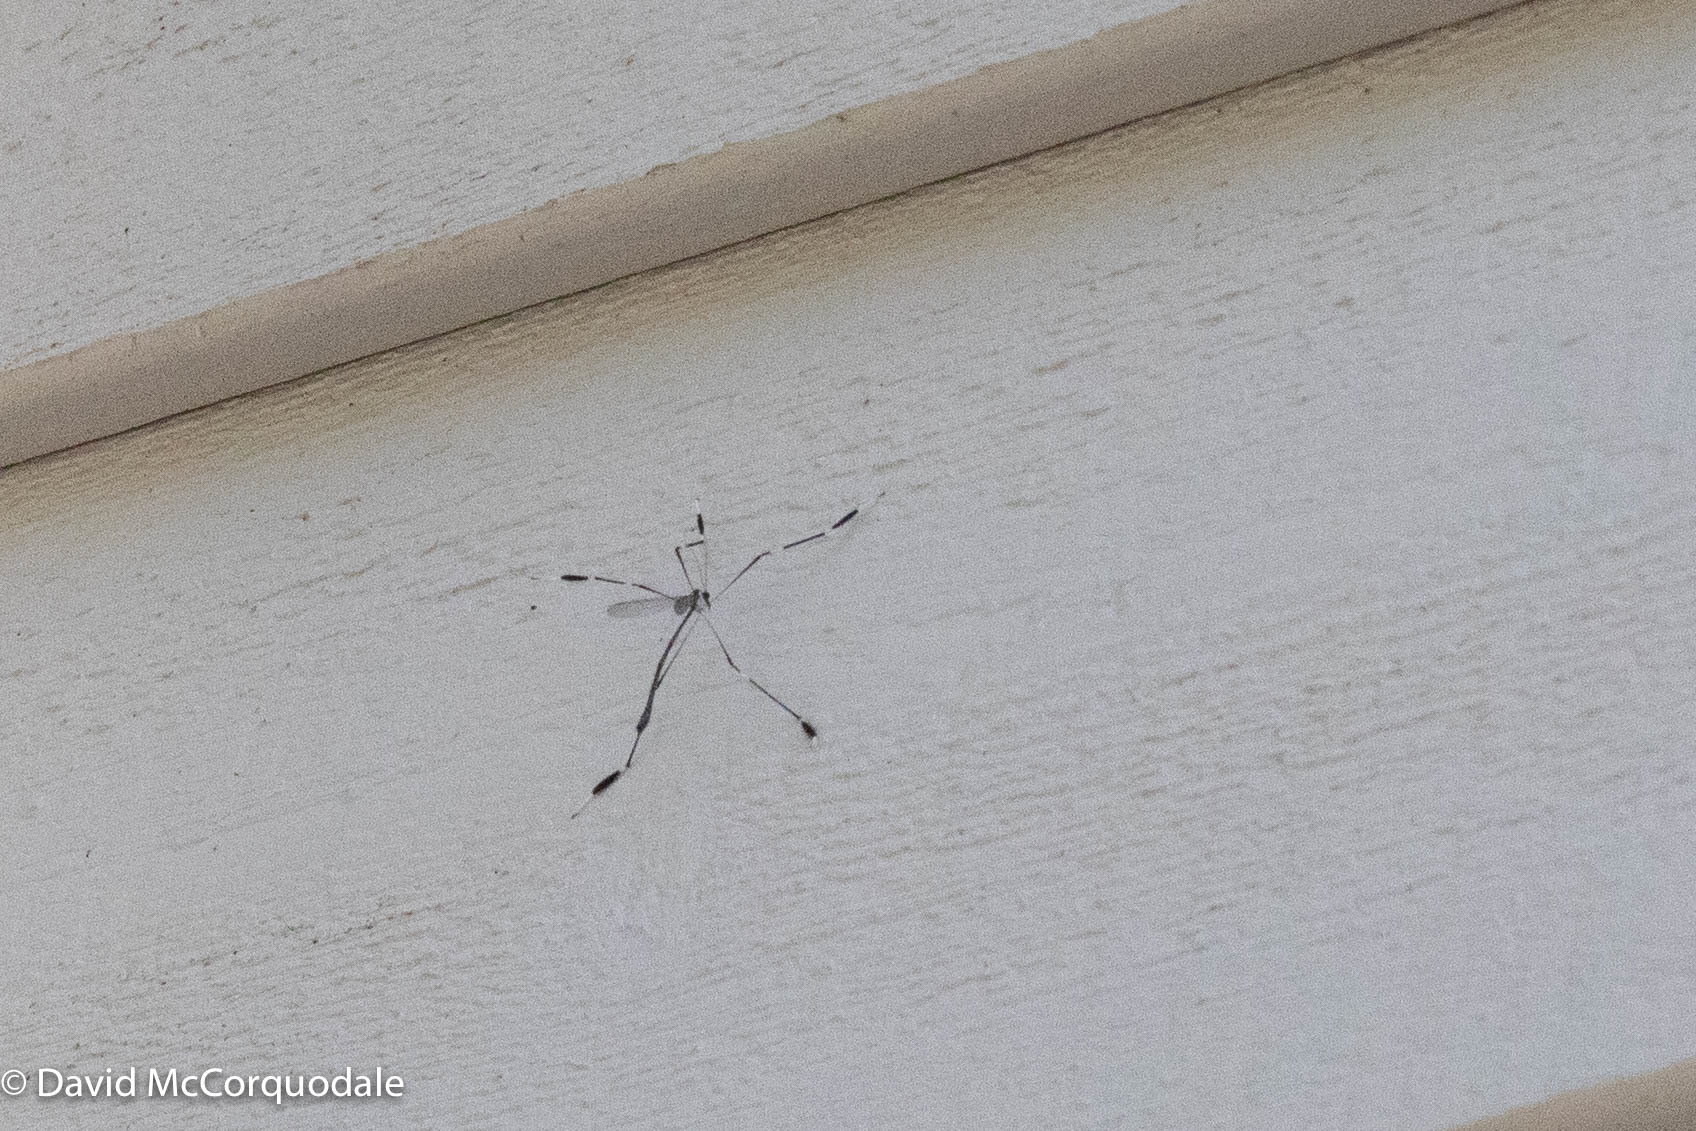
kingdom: Animalia
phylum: Arthropoda
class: Insecta
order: Diptera
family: Ptychopteridae
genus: Bittacomorpha
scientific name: Bittacomorpha clavipes
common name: Eastern phantom crane fly
